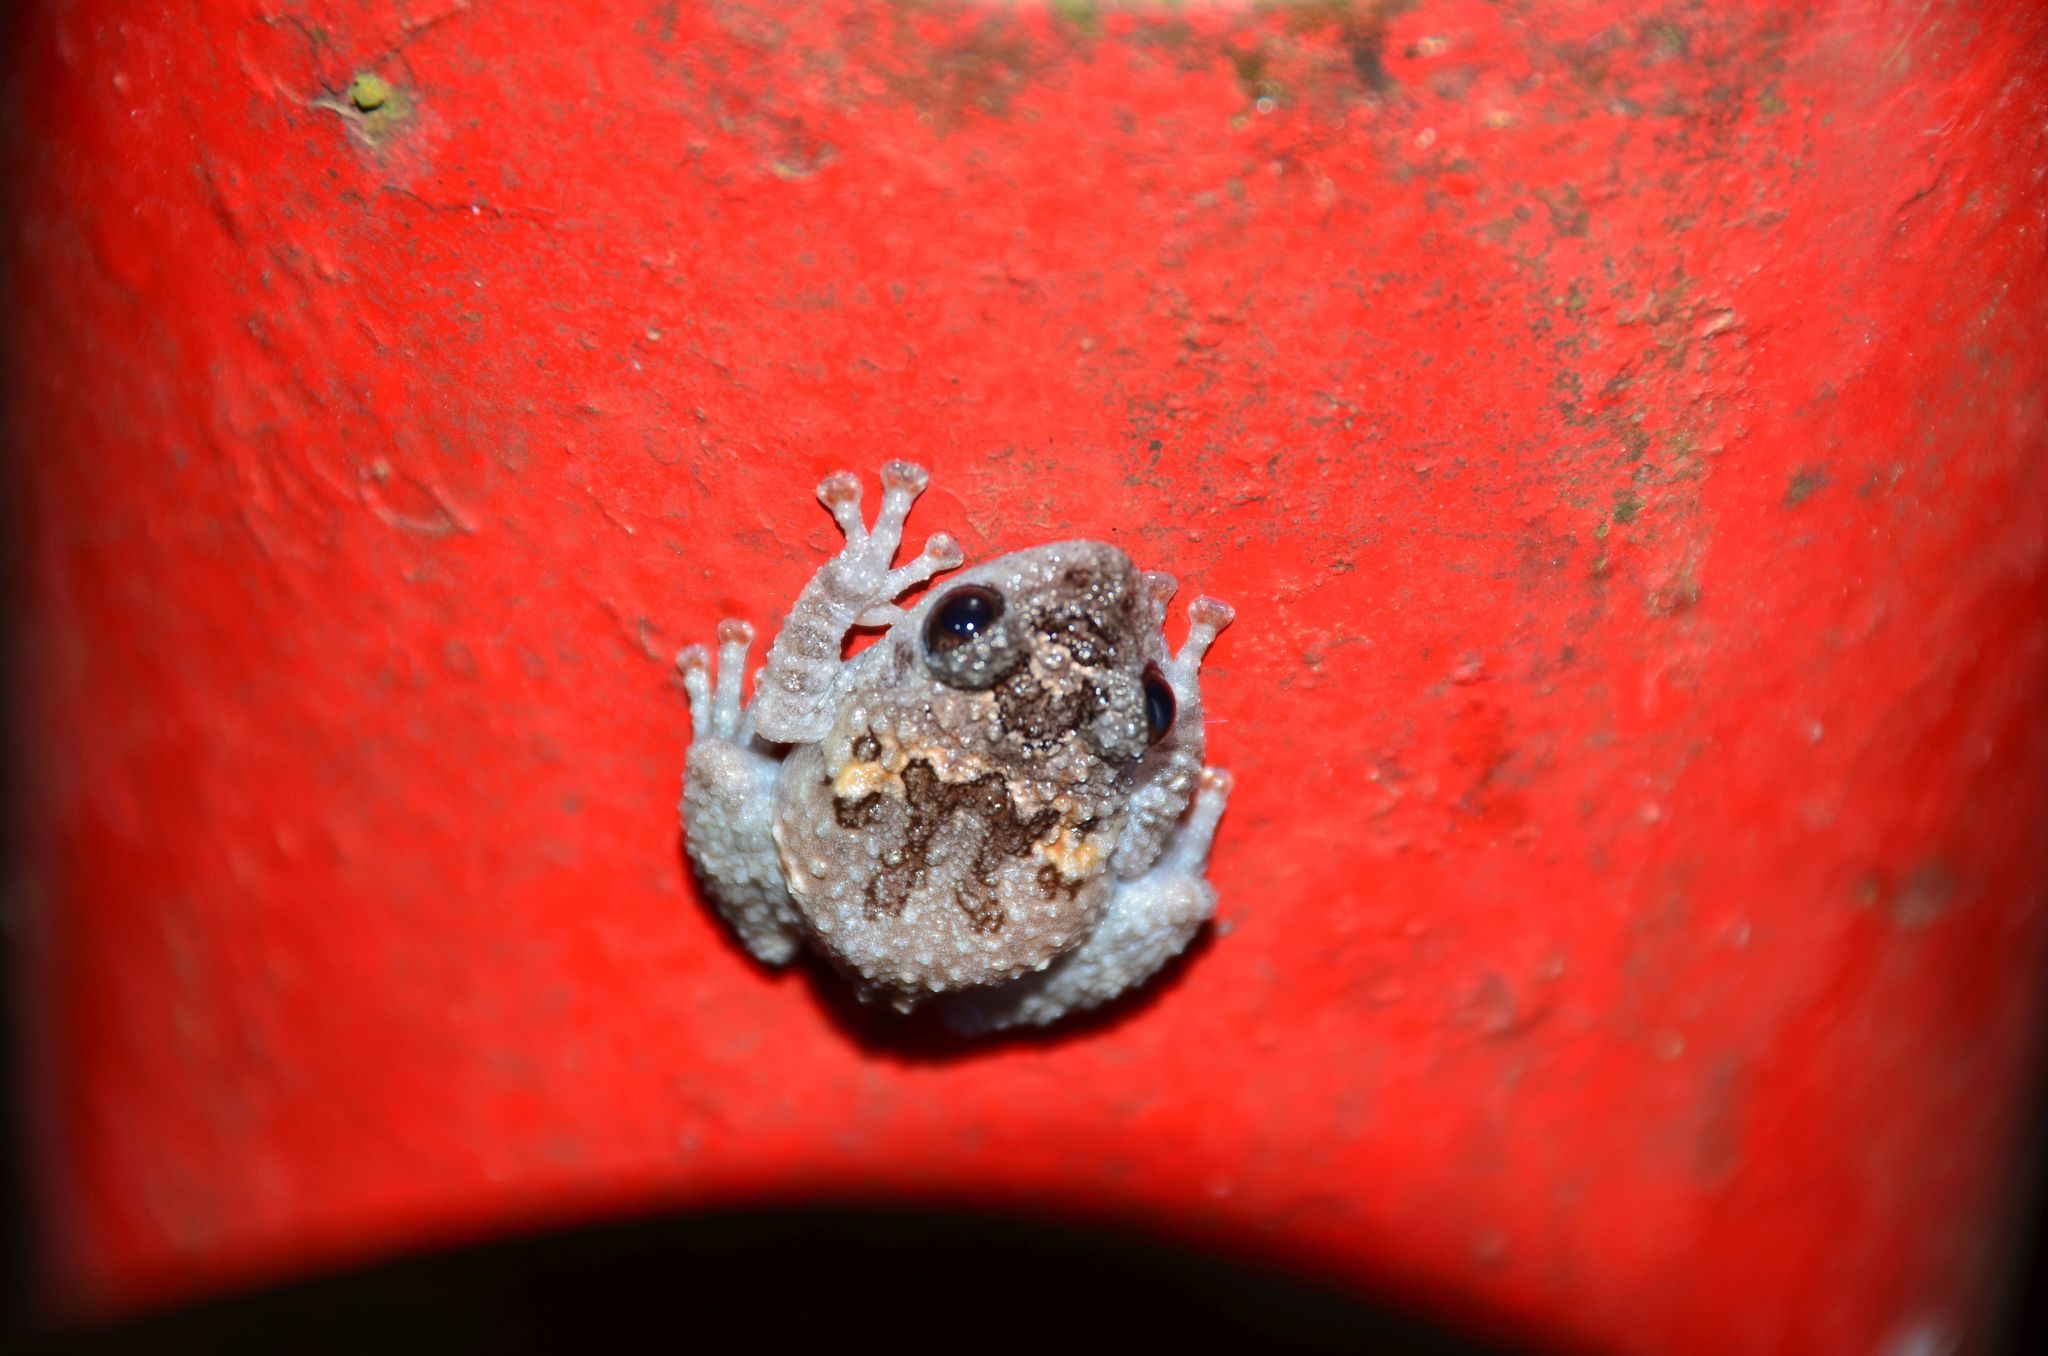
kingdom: Animalia
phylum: Chordata
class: Amphibia
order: Anura
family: Rhacophoridae
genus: Theloderma
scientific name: Theloderma vietnamense
